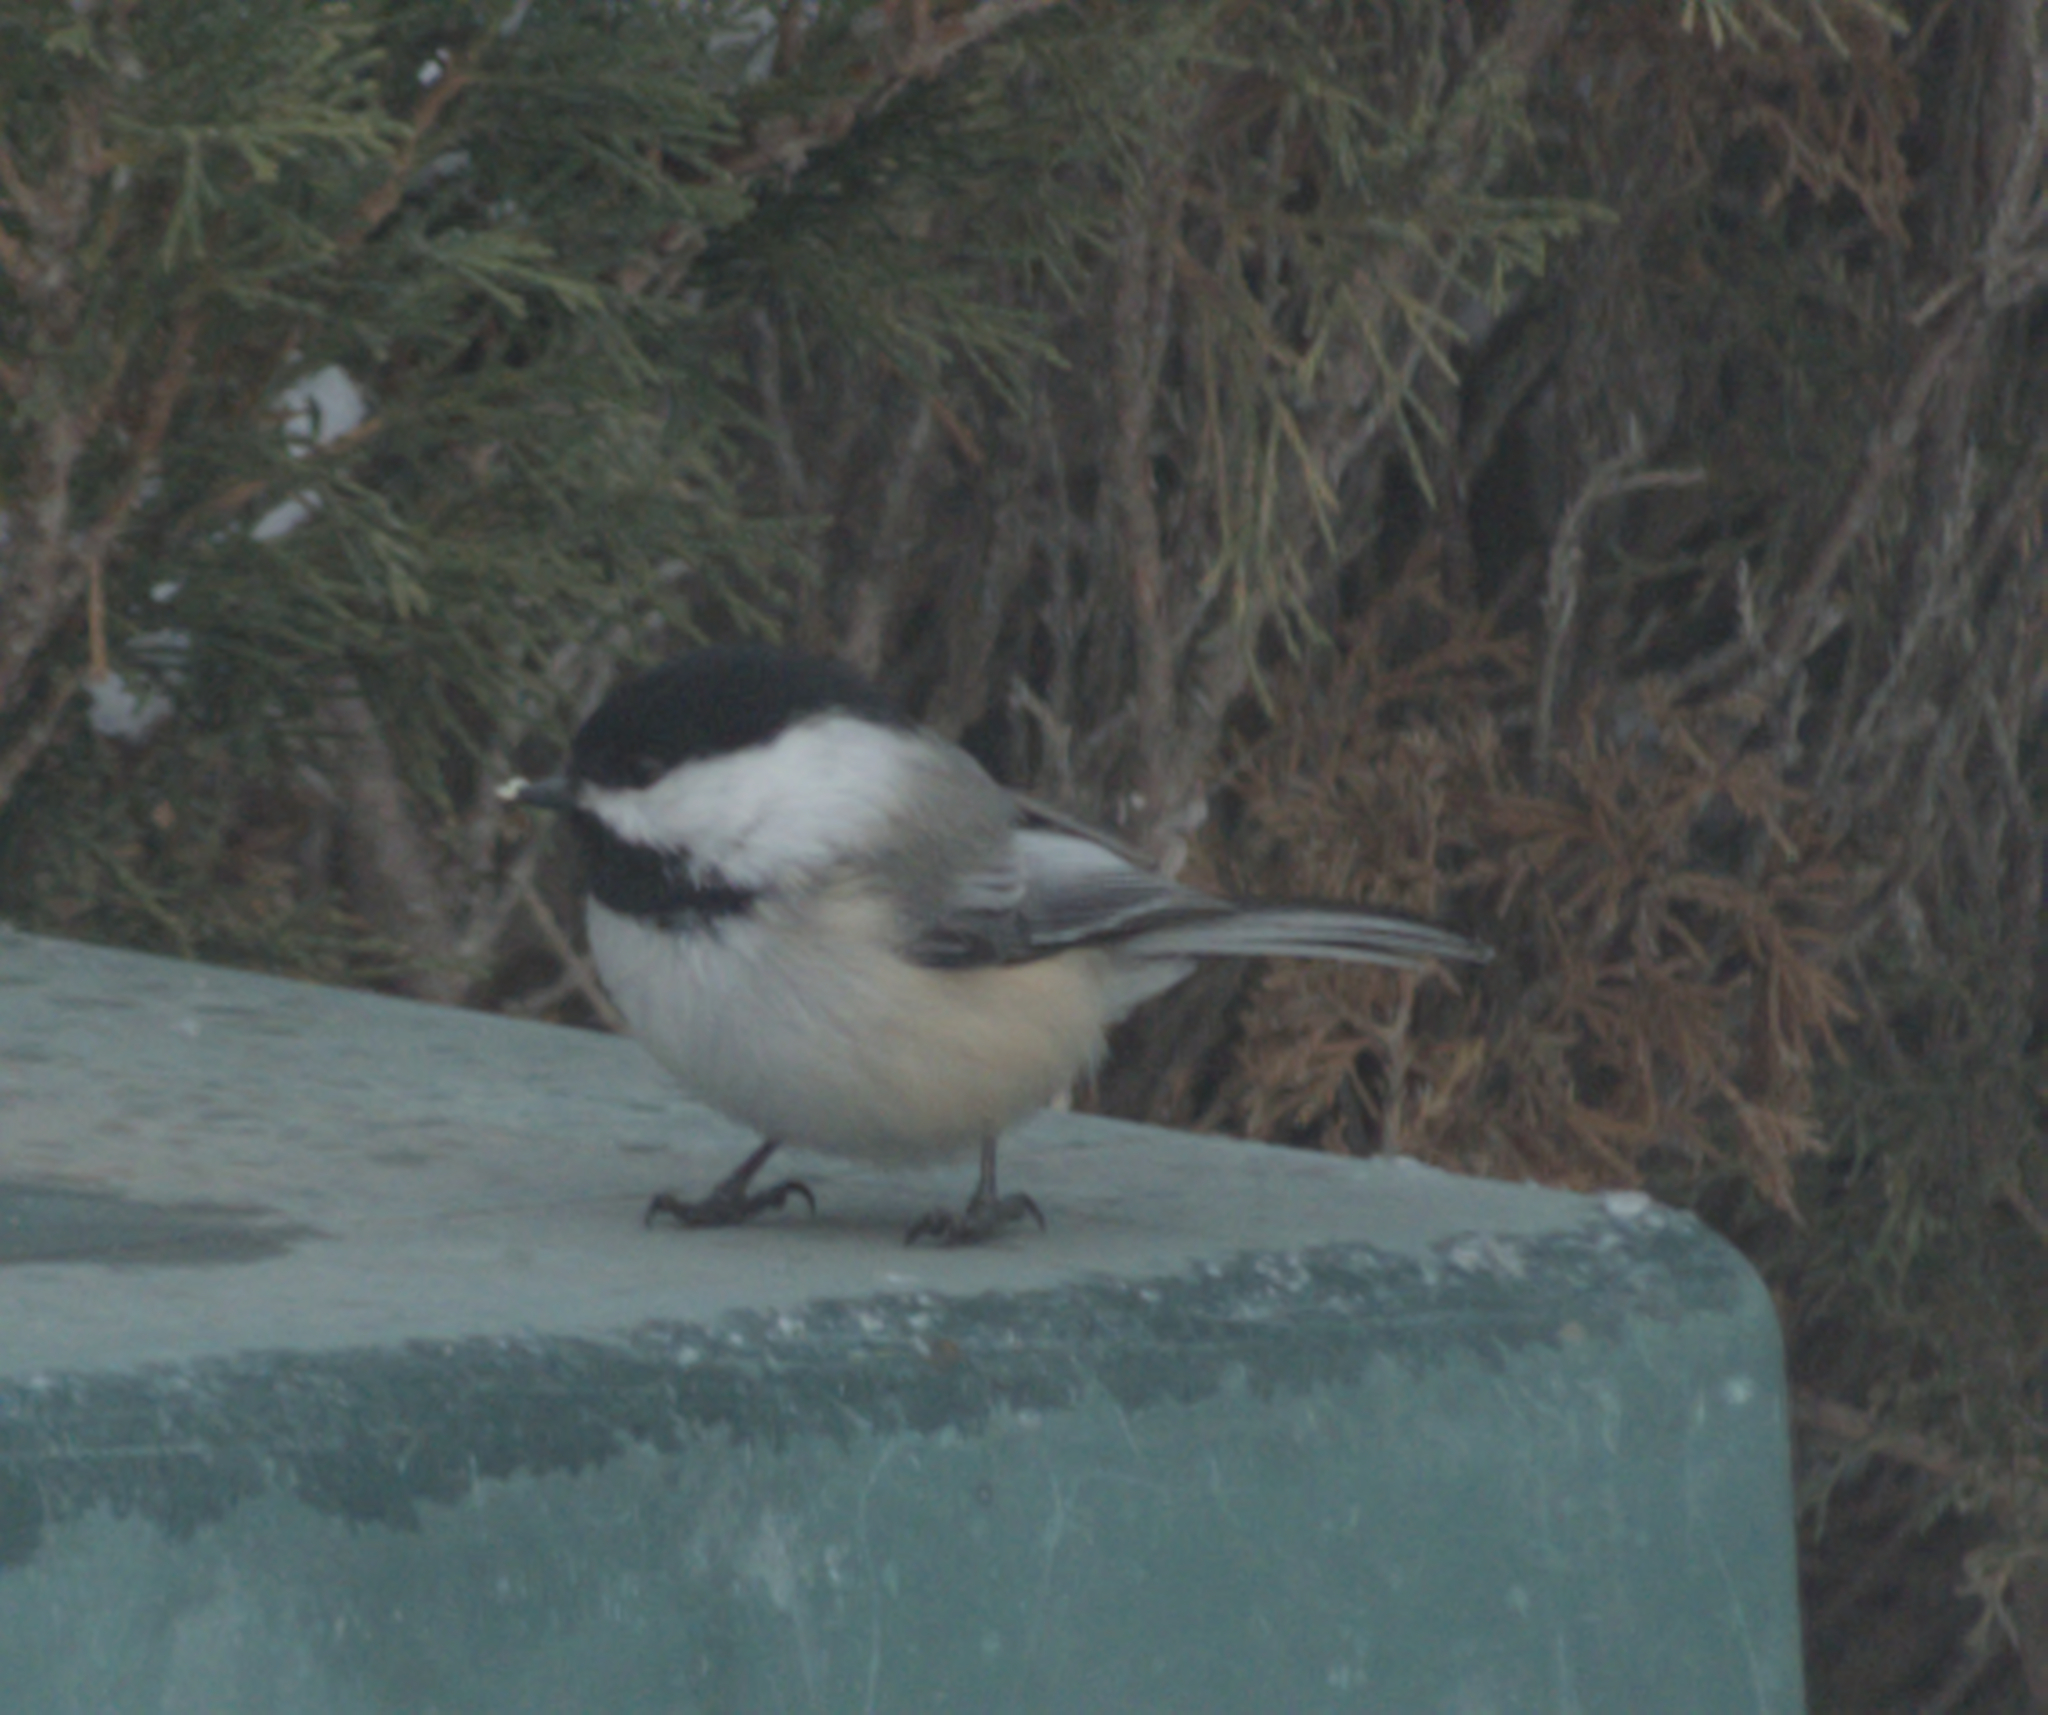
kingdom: Animalia
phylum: Chordata
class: Aves
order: Passeriformes
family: Paridae
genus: Poecile
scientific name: Poecile atricapillus
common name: Black-capped chickadee
